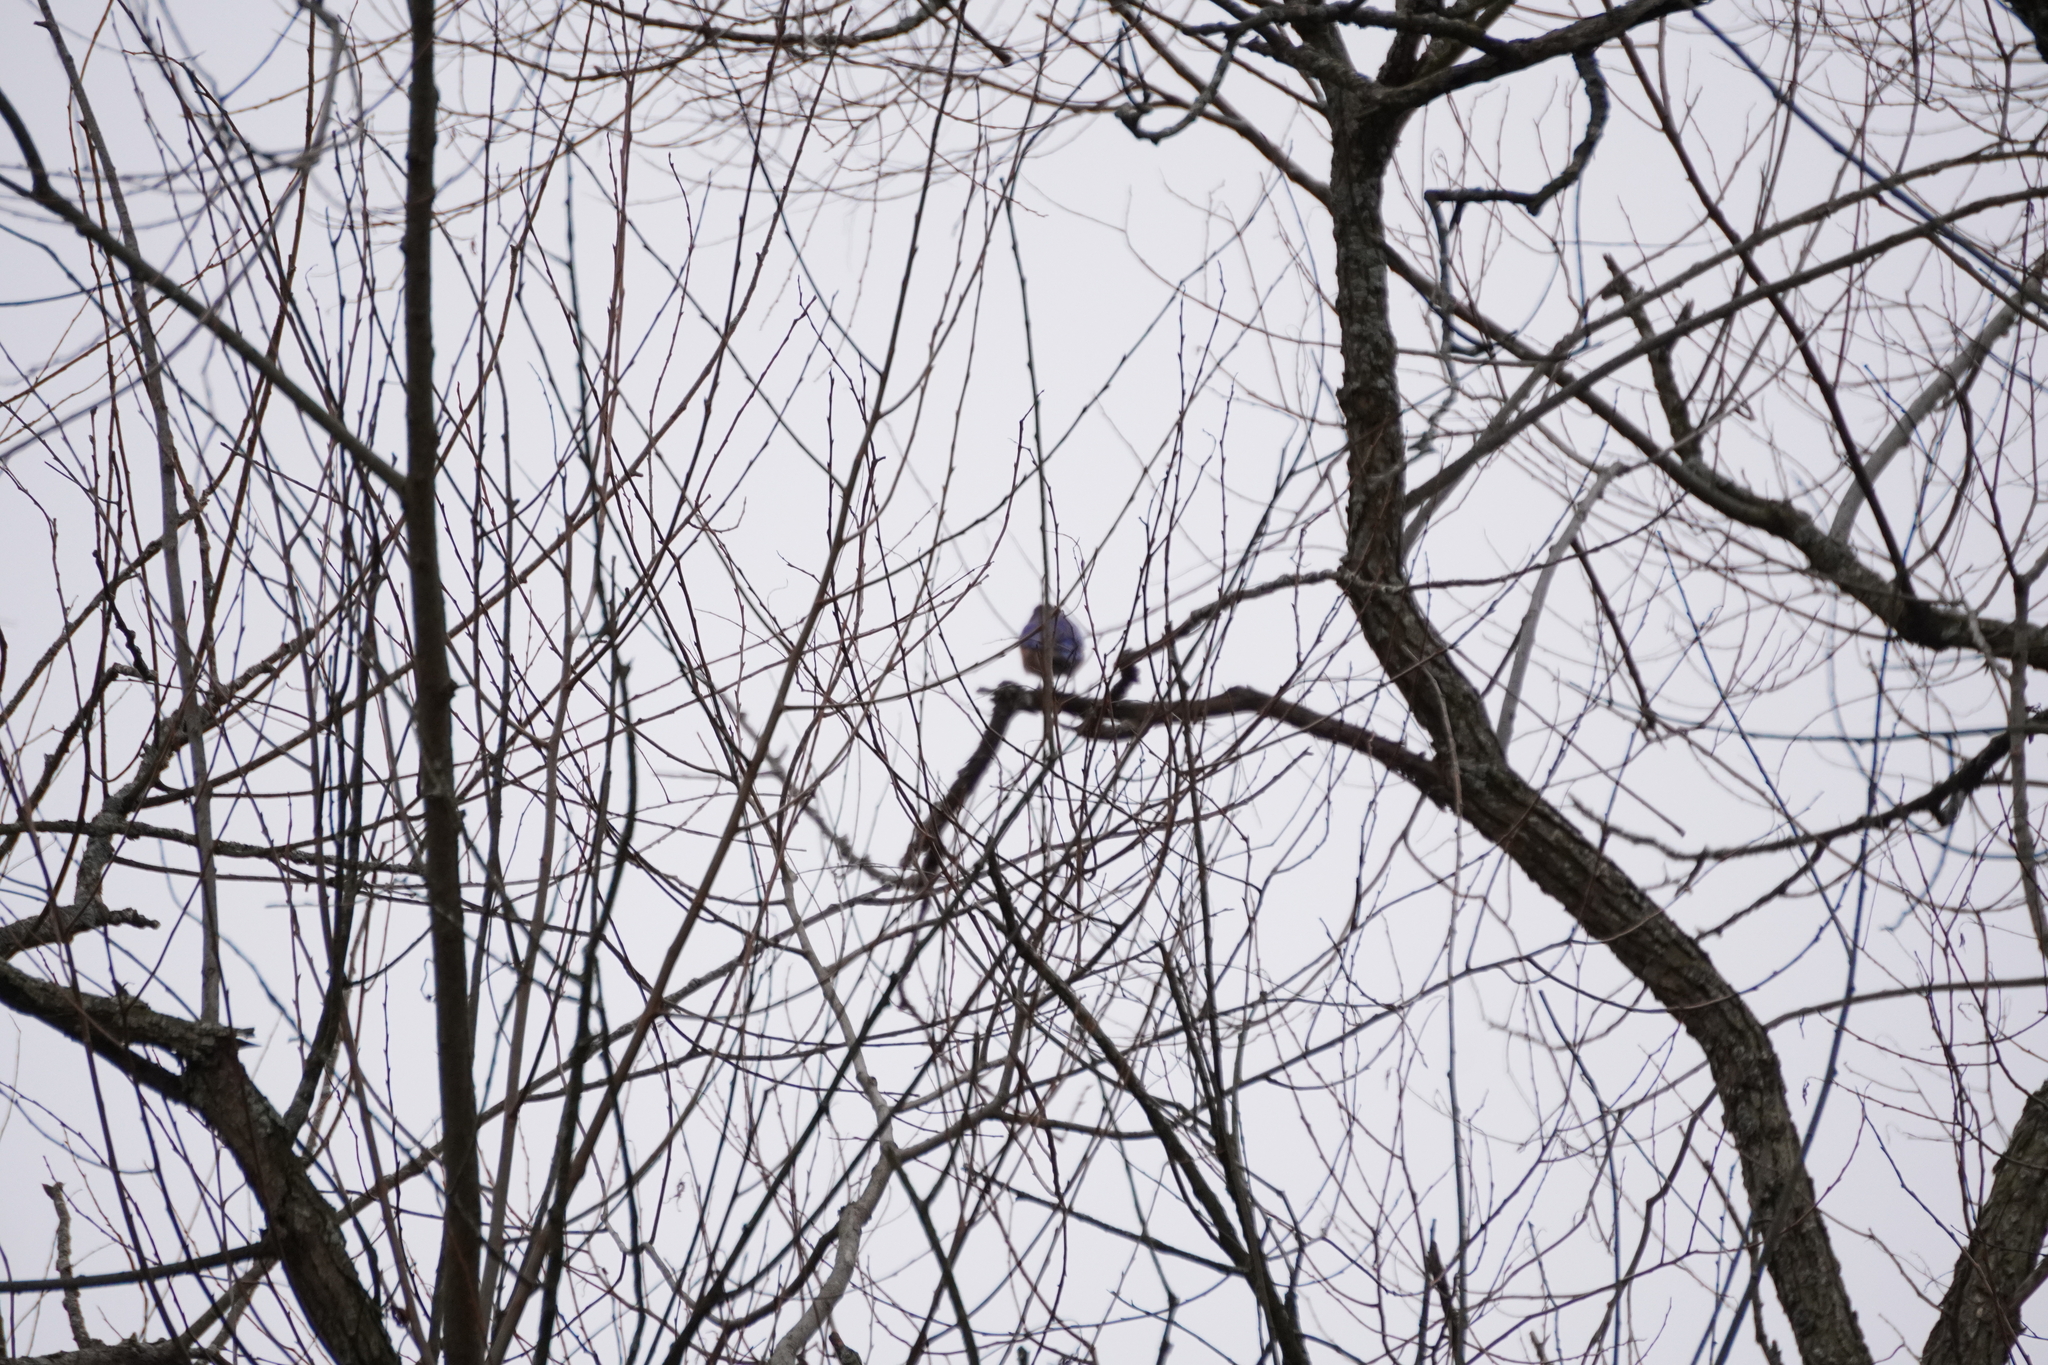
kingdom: Animalia
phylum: Chordata
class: Aves
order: Passeriformes
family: Turdidae
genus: Sialia
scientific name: Sialia sialis
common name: Eastern bluebird
